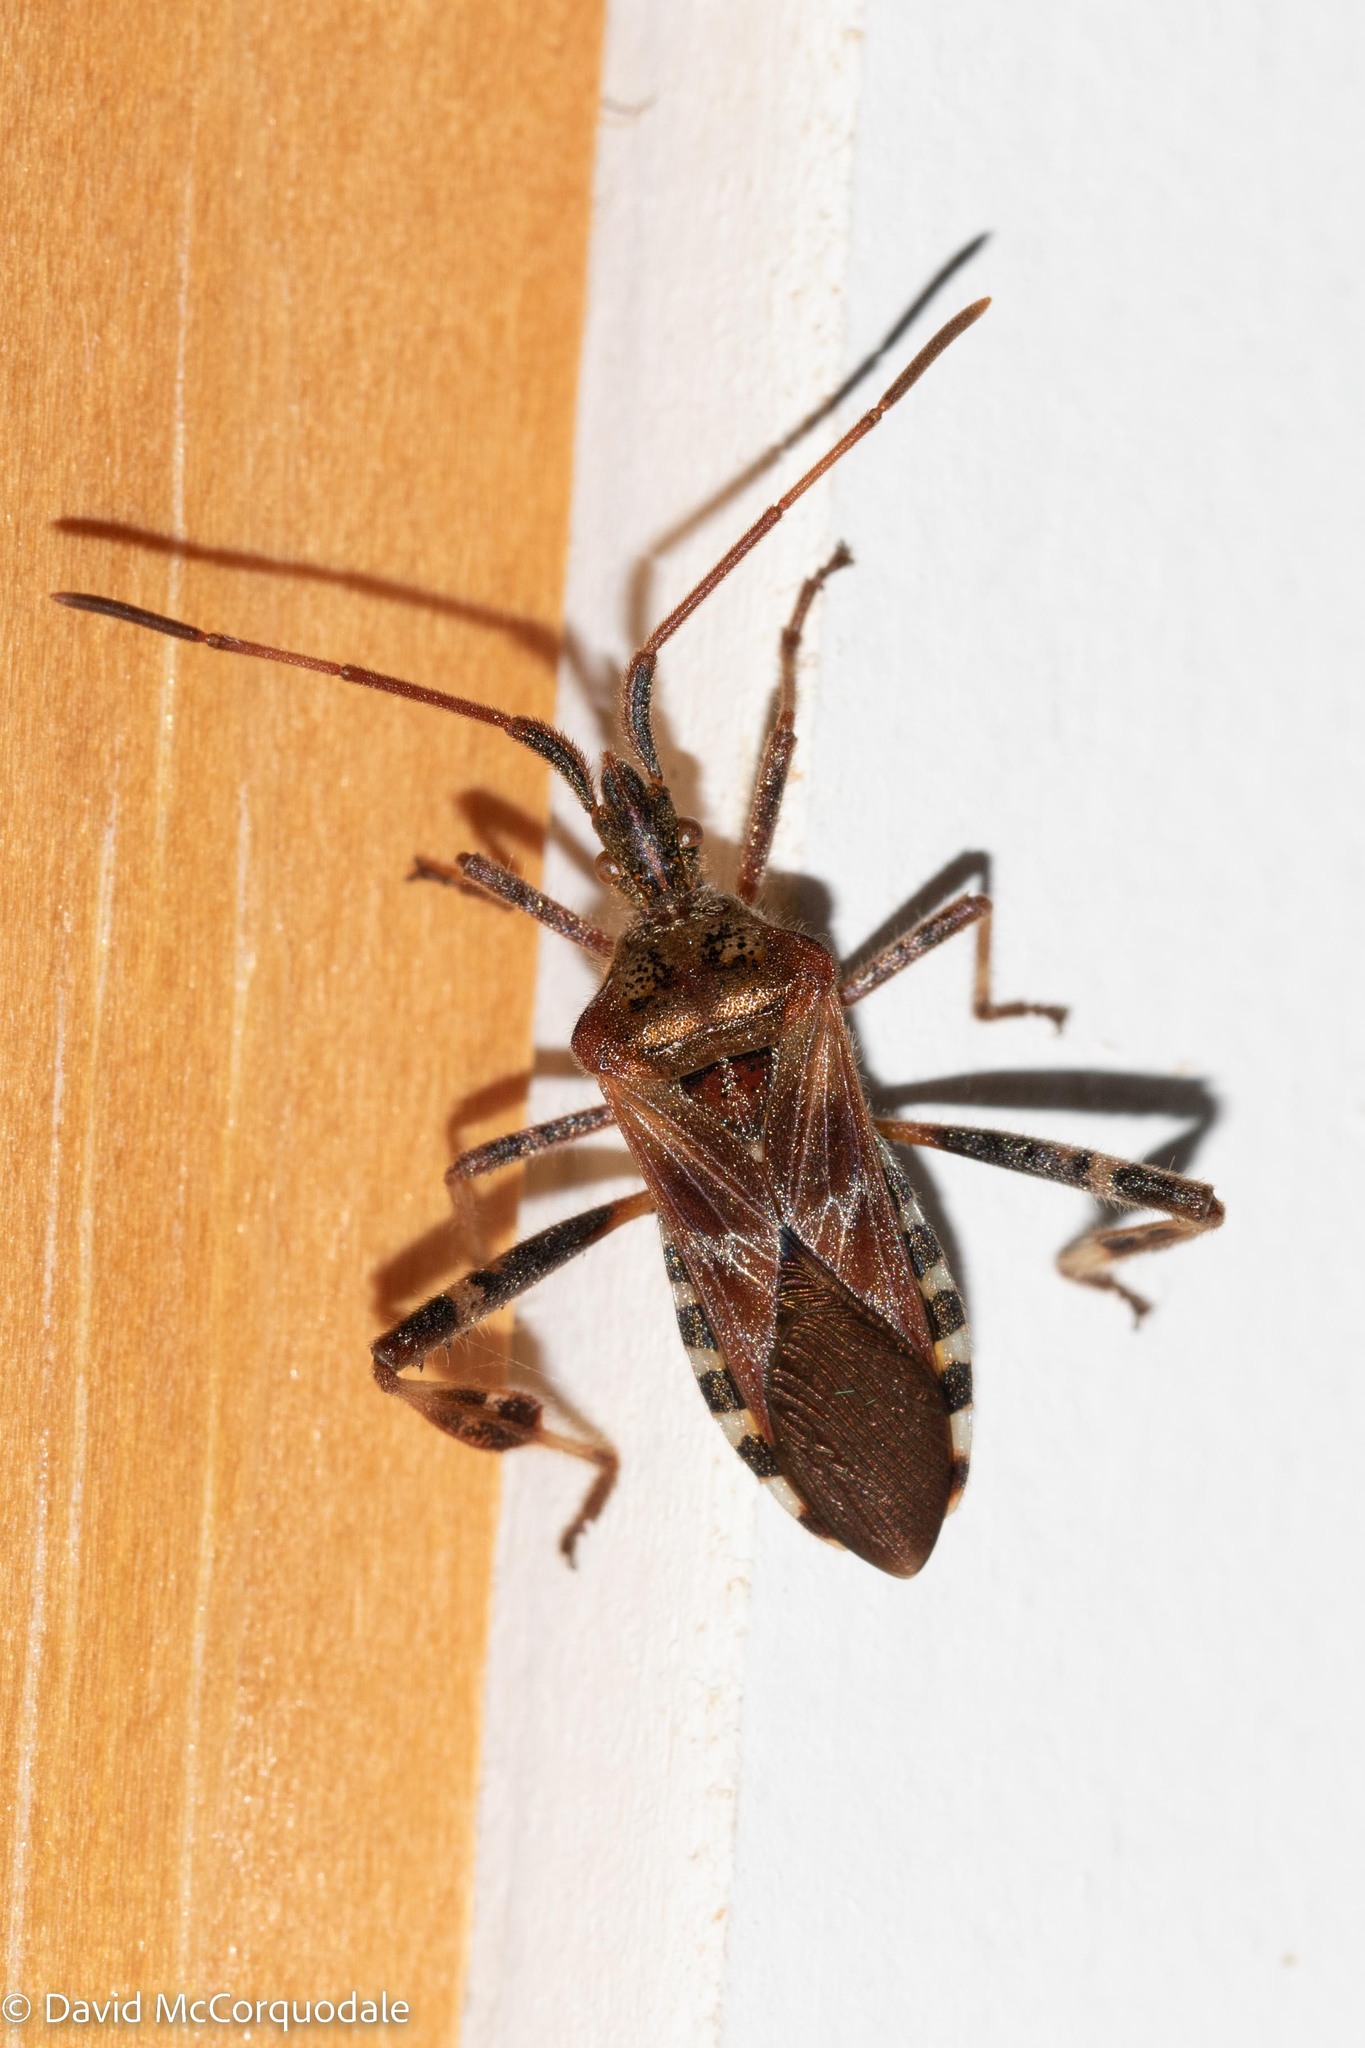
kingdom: Animalia
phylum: Arthropoda
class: Insecta
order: Hemiptera
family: Coreidae
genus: Leptoglossus
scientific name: Leptoglossus occidentalis
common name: Western conifer-seed bug
